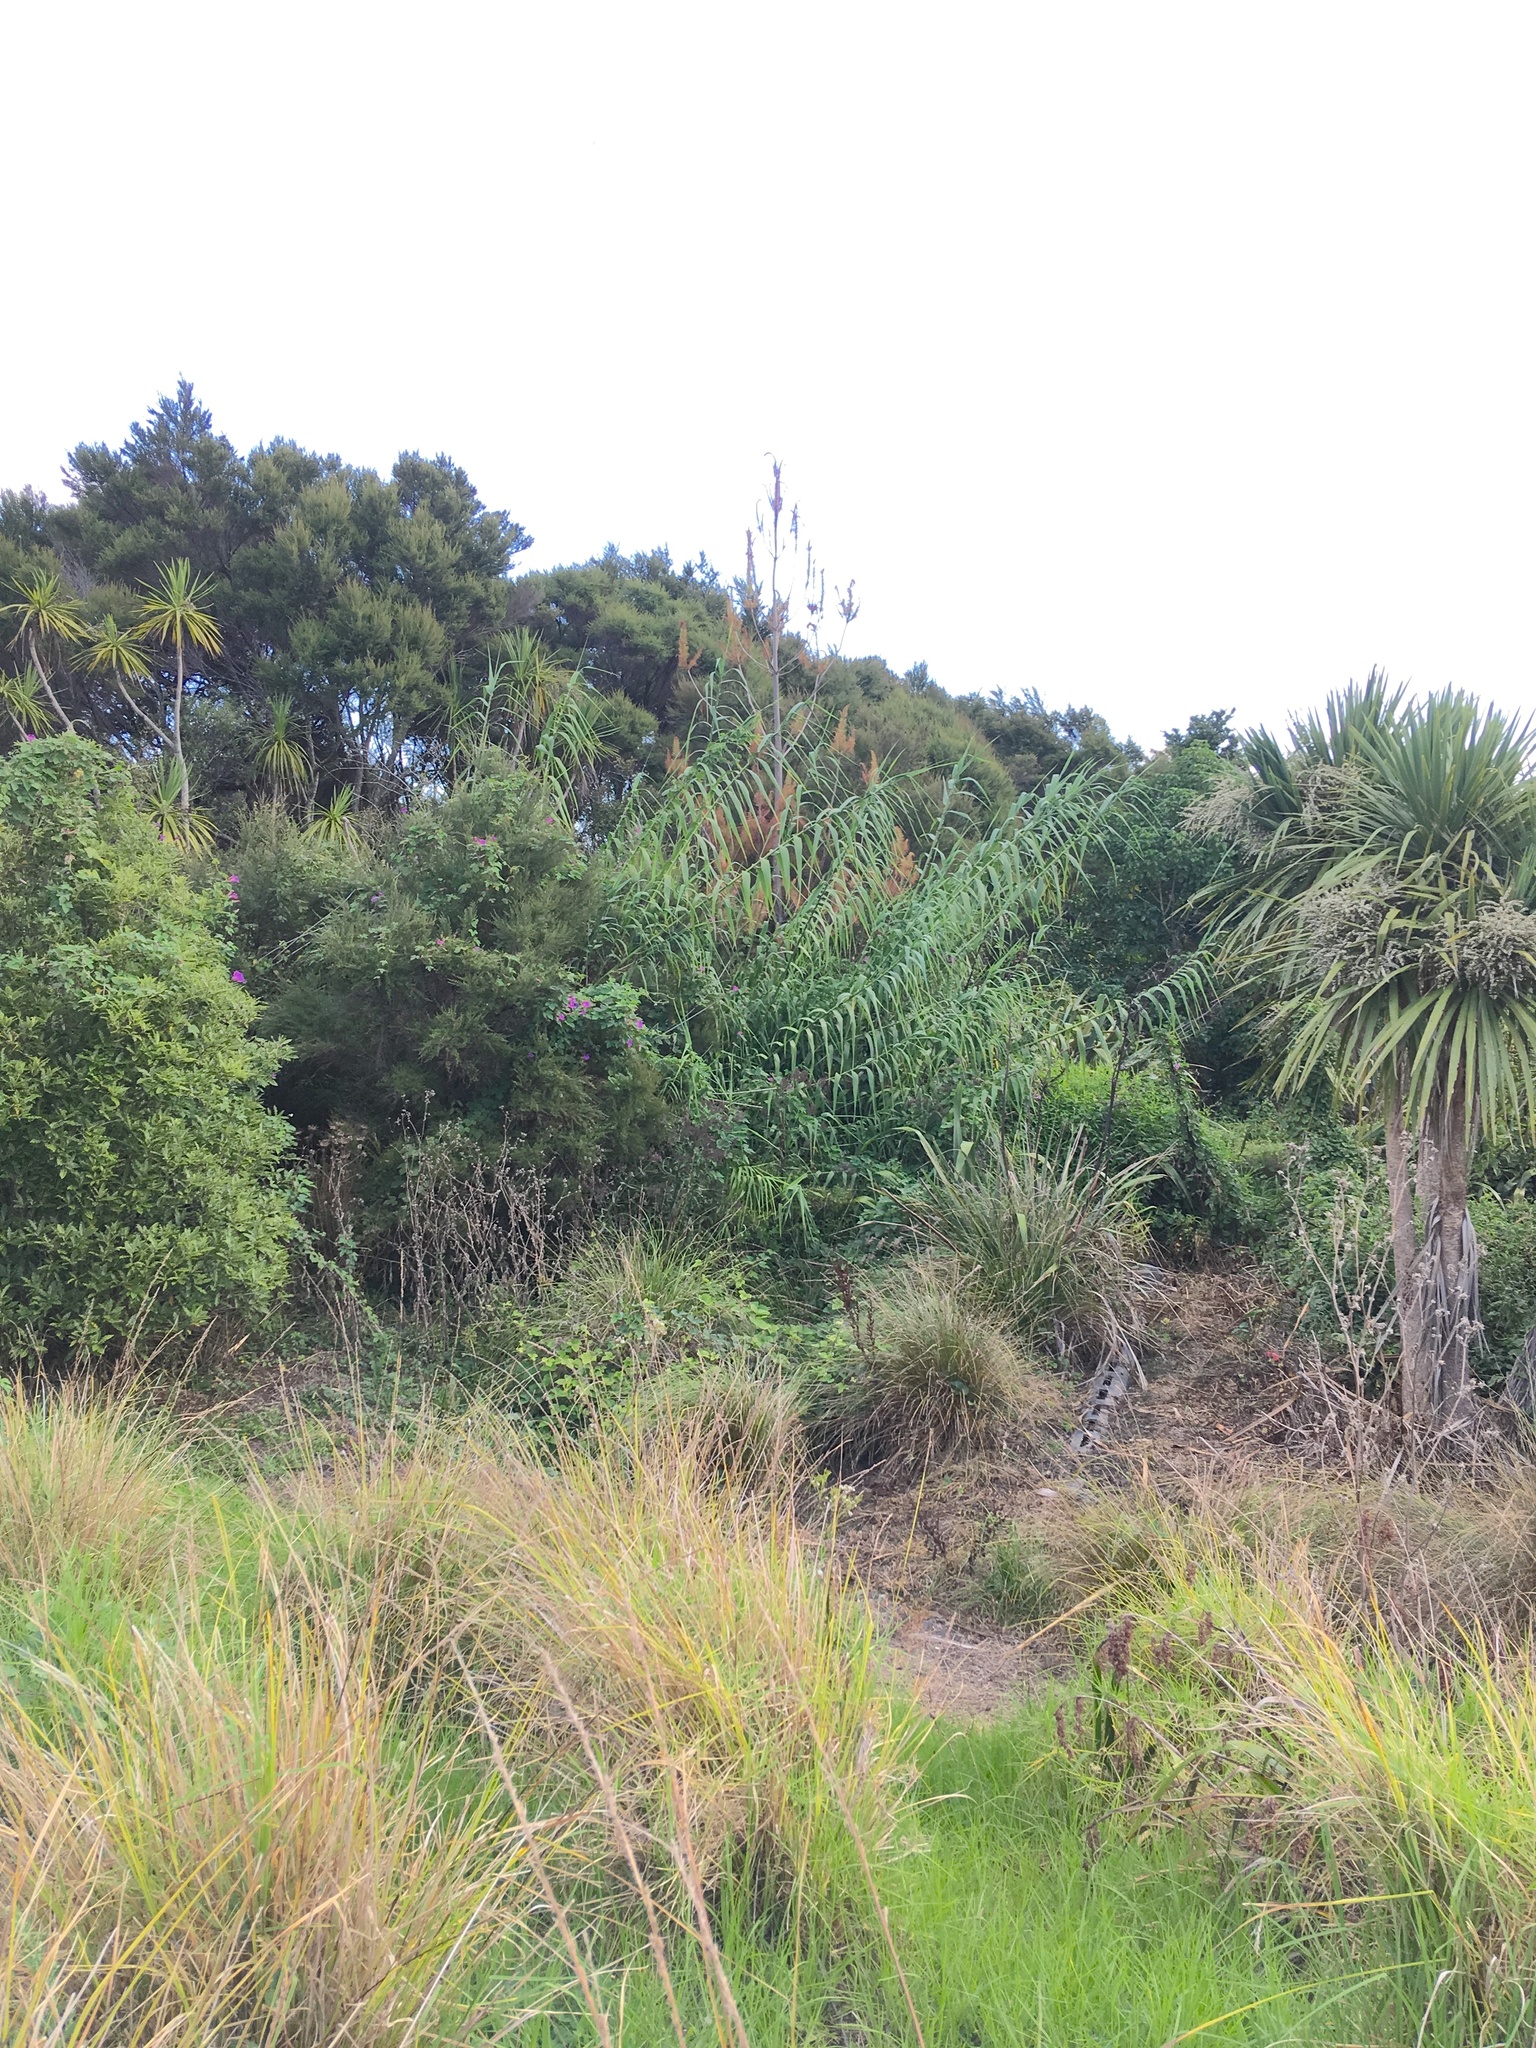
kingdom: Plantae
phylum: Tracheophyta
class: Liliopsida
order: Poales
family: Poaceae
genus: Arundo
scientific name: Arundo donax
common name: Giant reed
